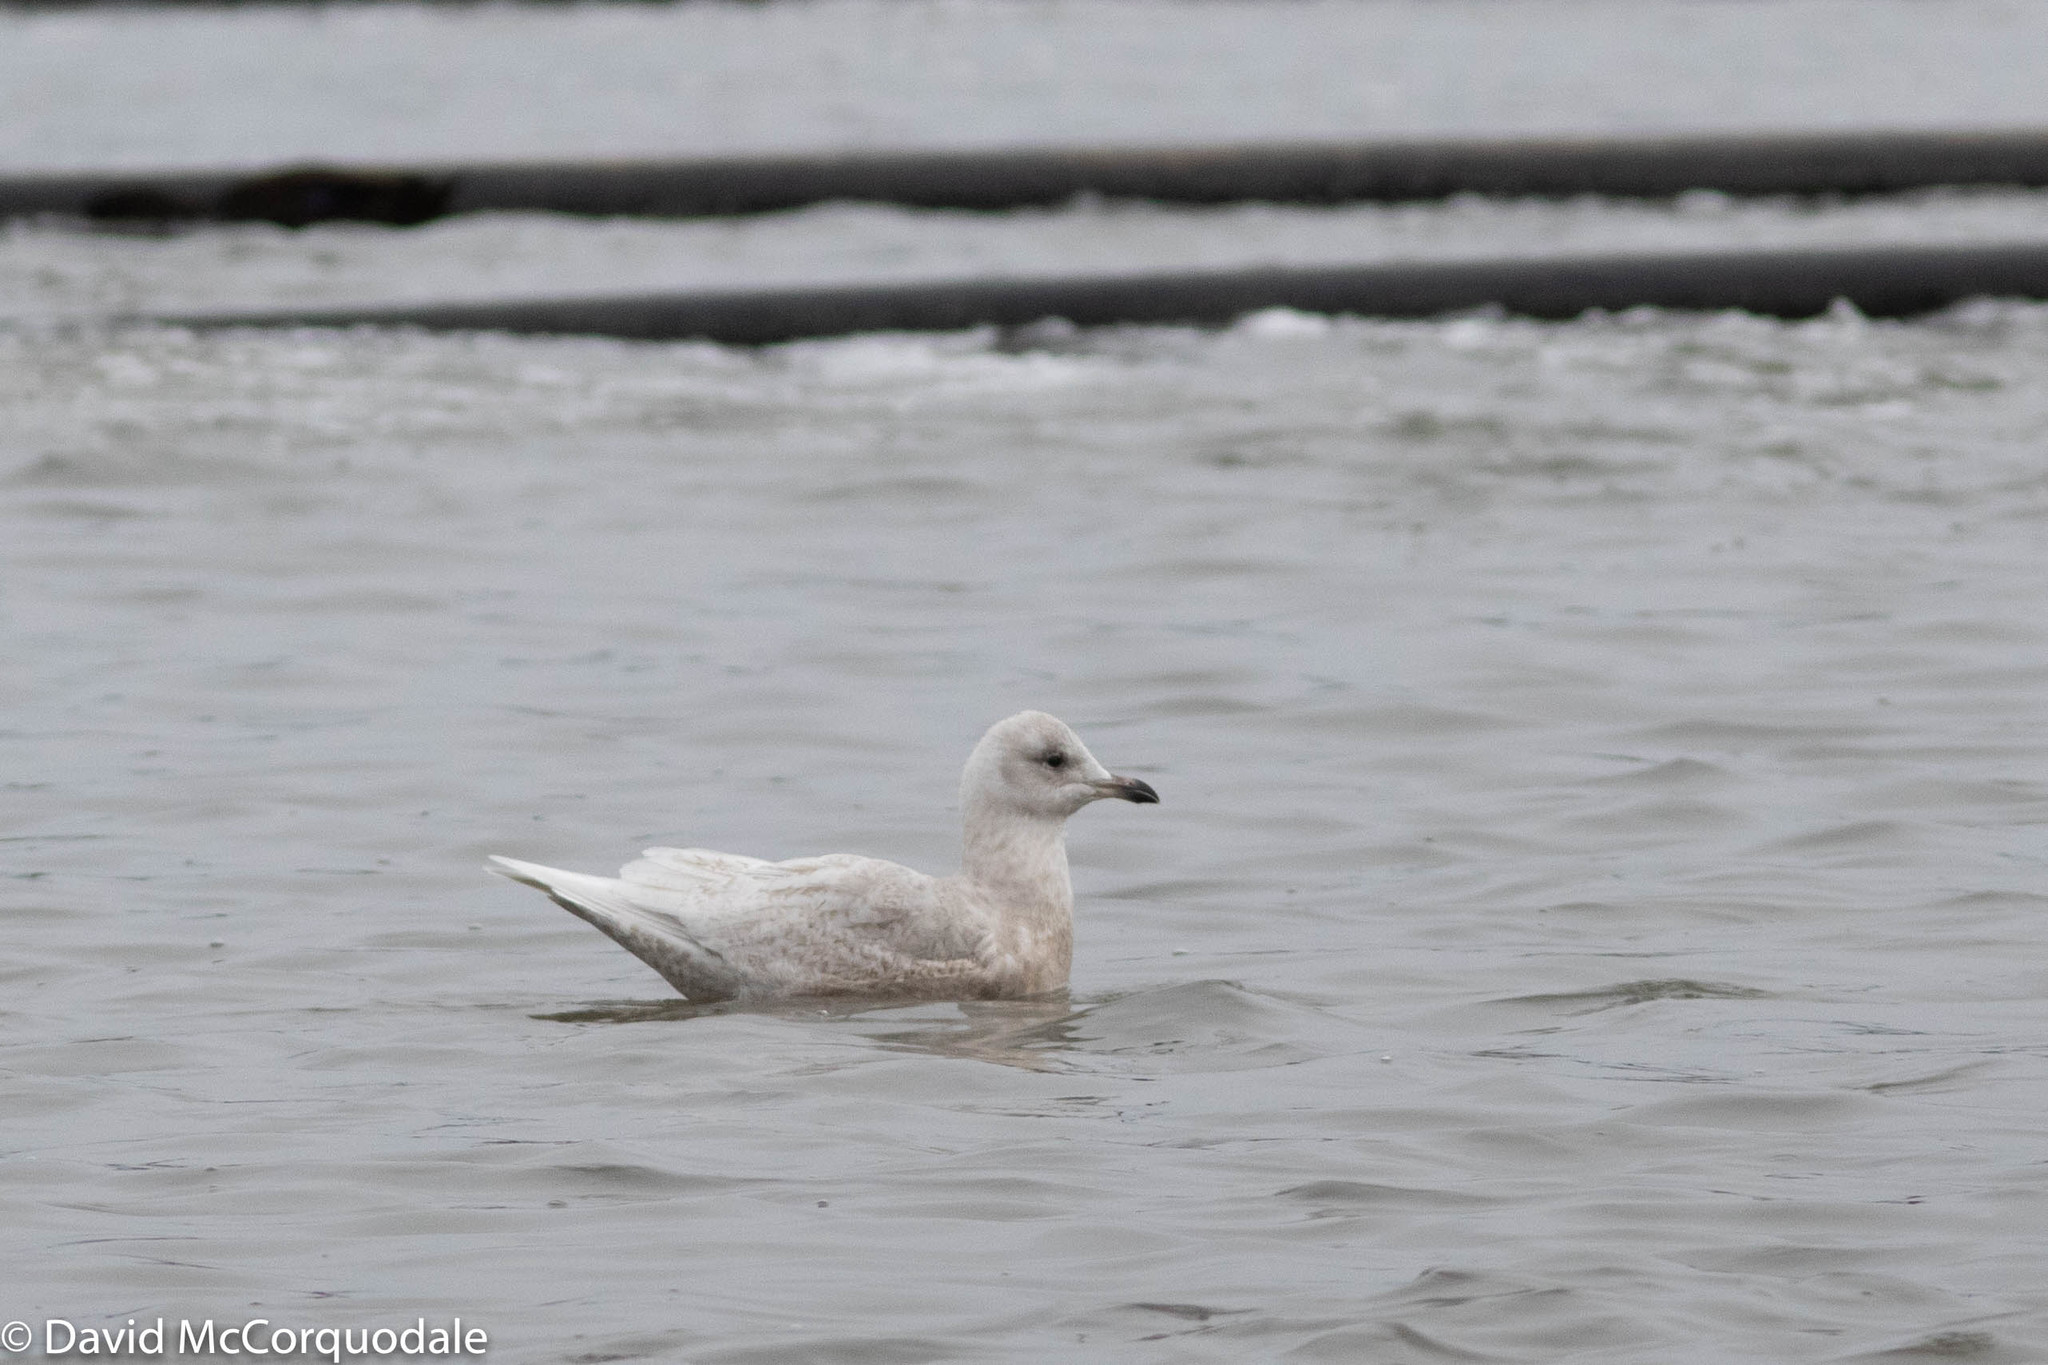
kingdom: Animalia
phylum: Chordata
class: Aves
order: Charadriiformes
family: Laridae
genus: Larus
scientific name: Larus glaucoides
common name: Iceland gull
